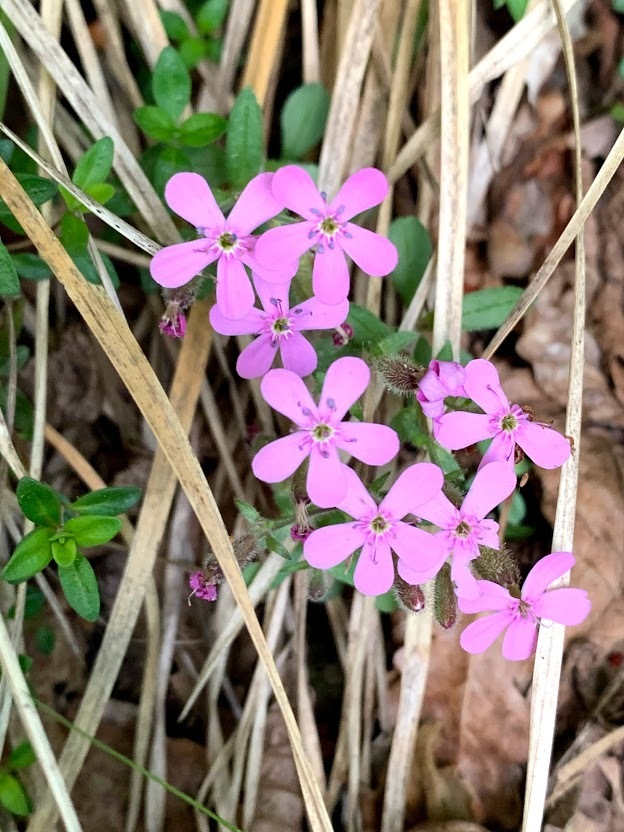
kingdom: Plantae
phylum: Tracheophyta
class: Magnoliopsida
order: Caryophyllales
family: Caryophyllaceae
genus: Saponaria
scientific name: Saponaria ocymoides
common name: Rock soapwort
